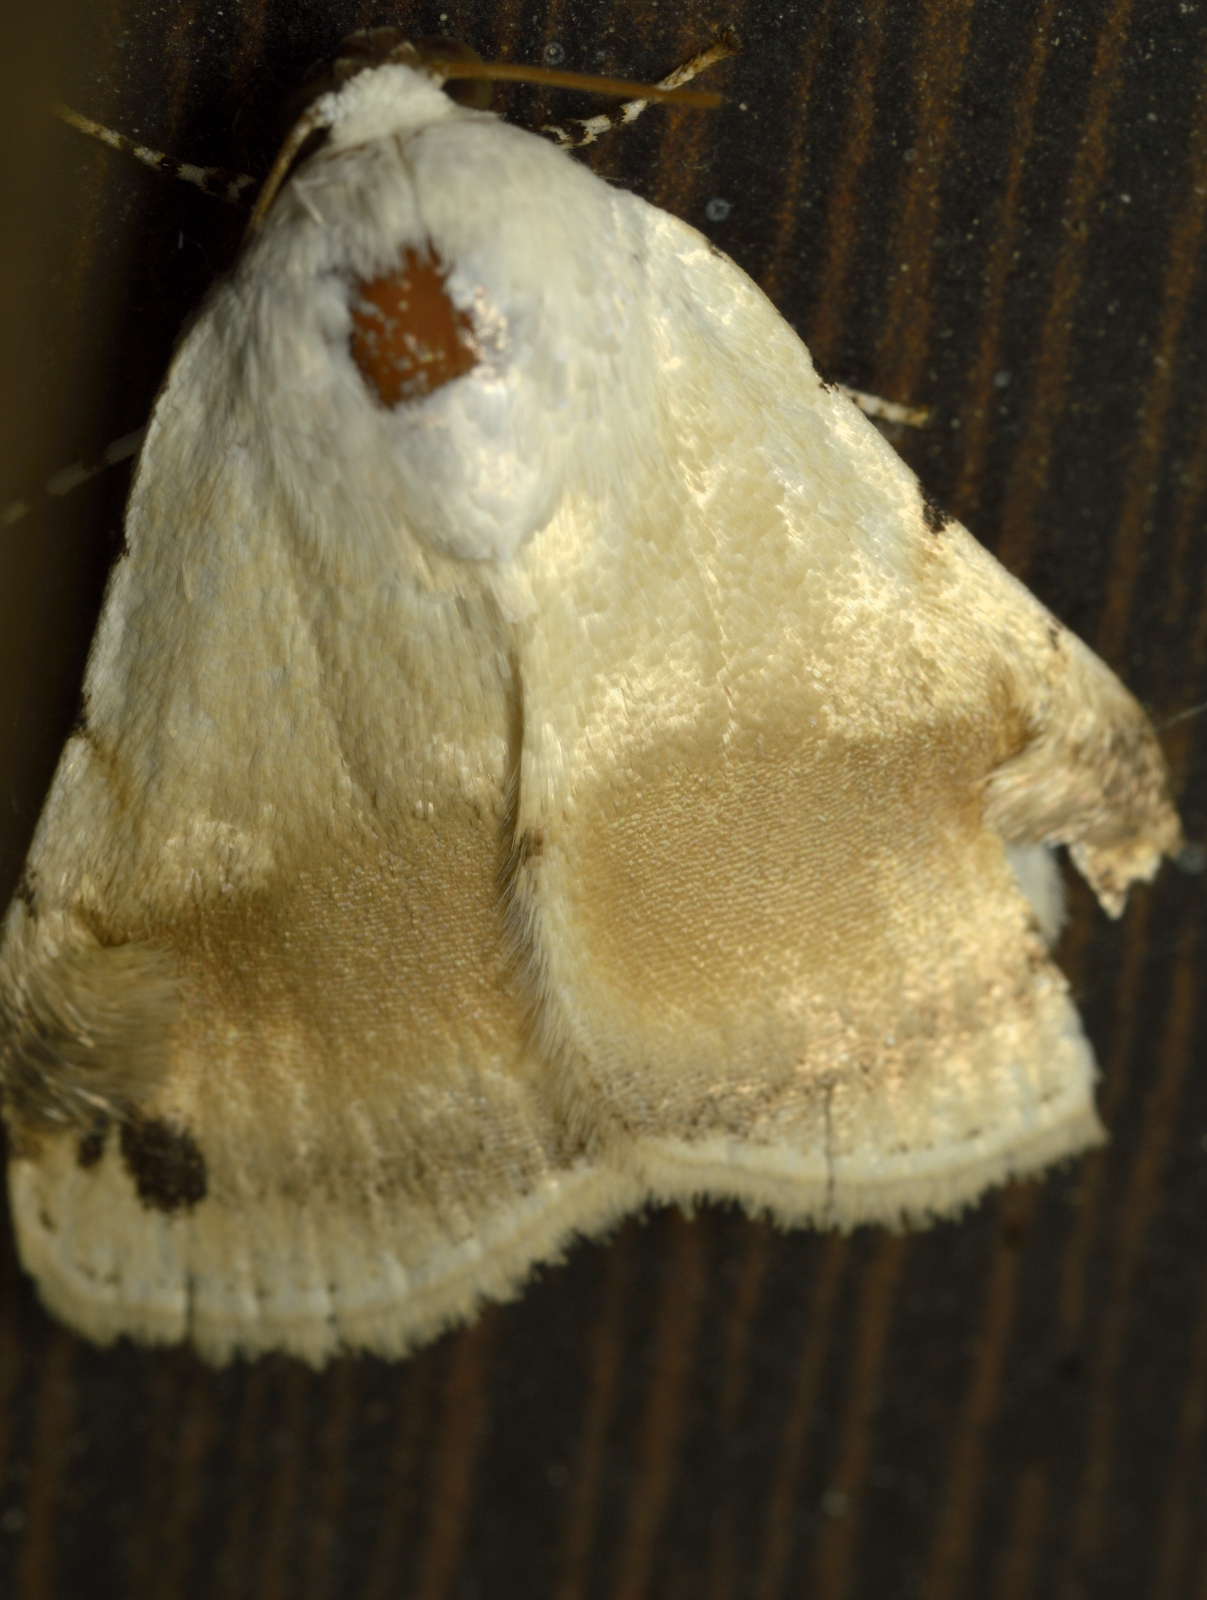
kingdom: Animalia
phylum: Arthropoda
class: Insecta
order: Lepidoptera
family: Noctuidae
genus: Chasmina
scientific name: Chasmina fasciculosa
